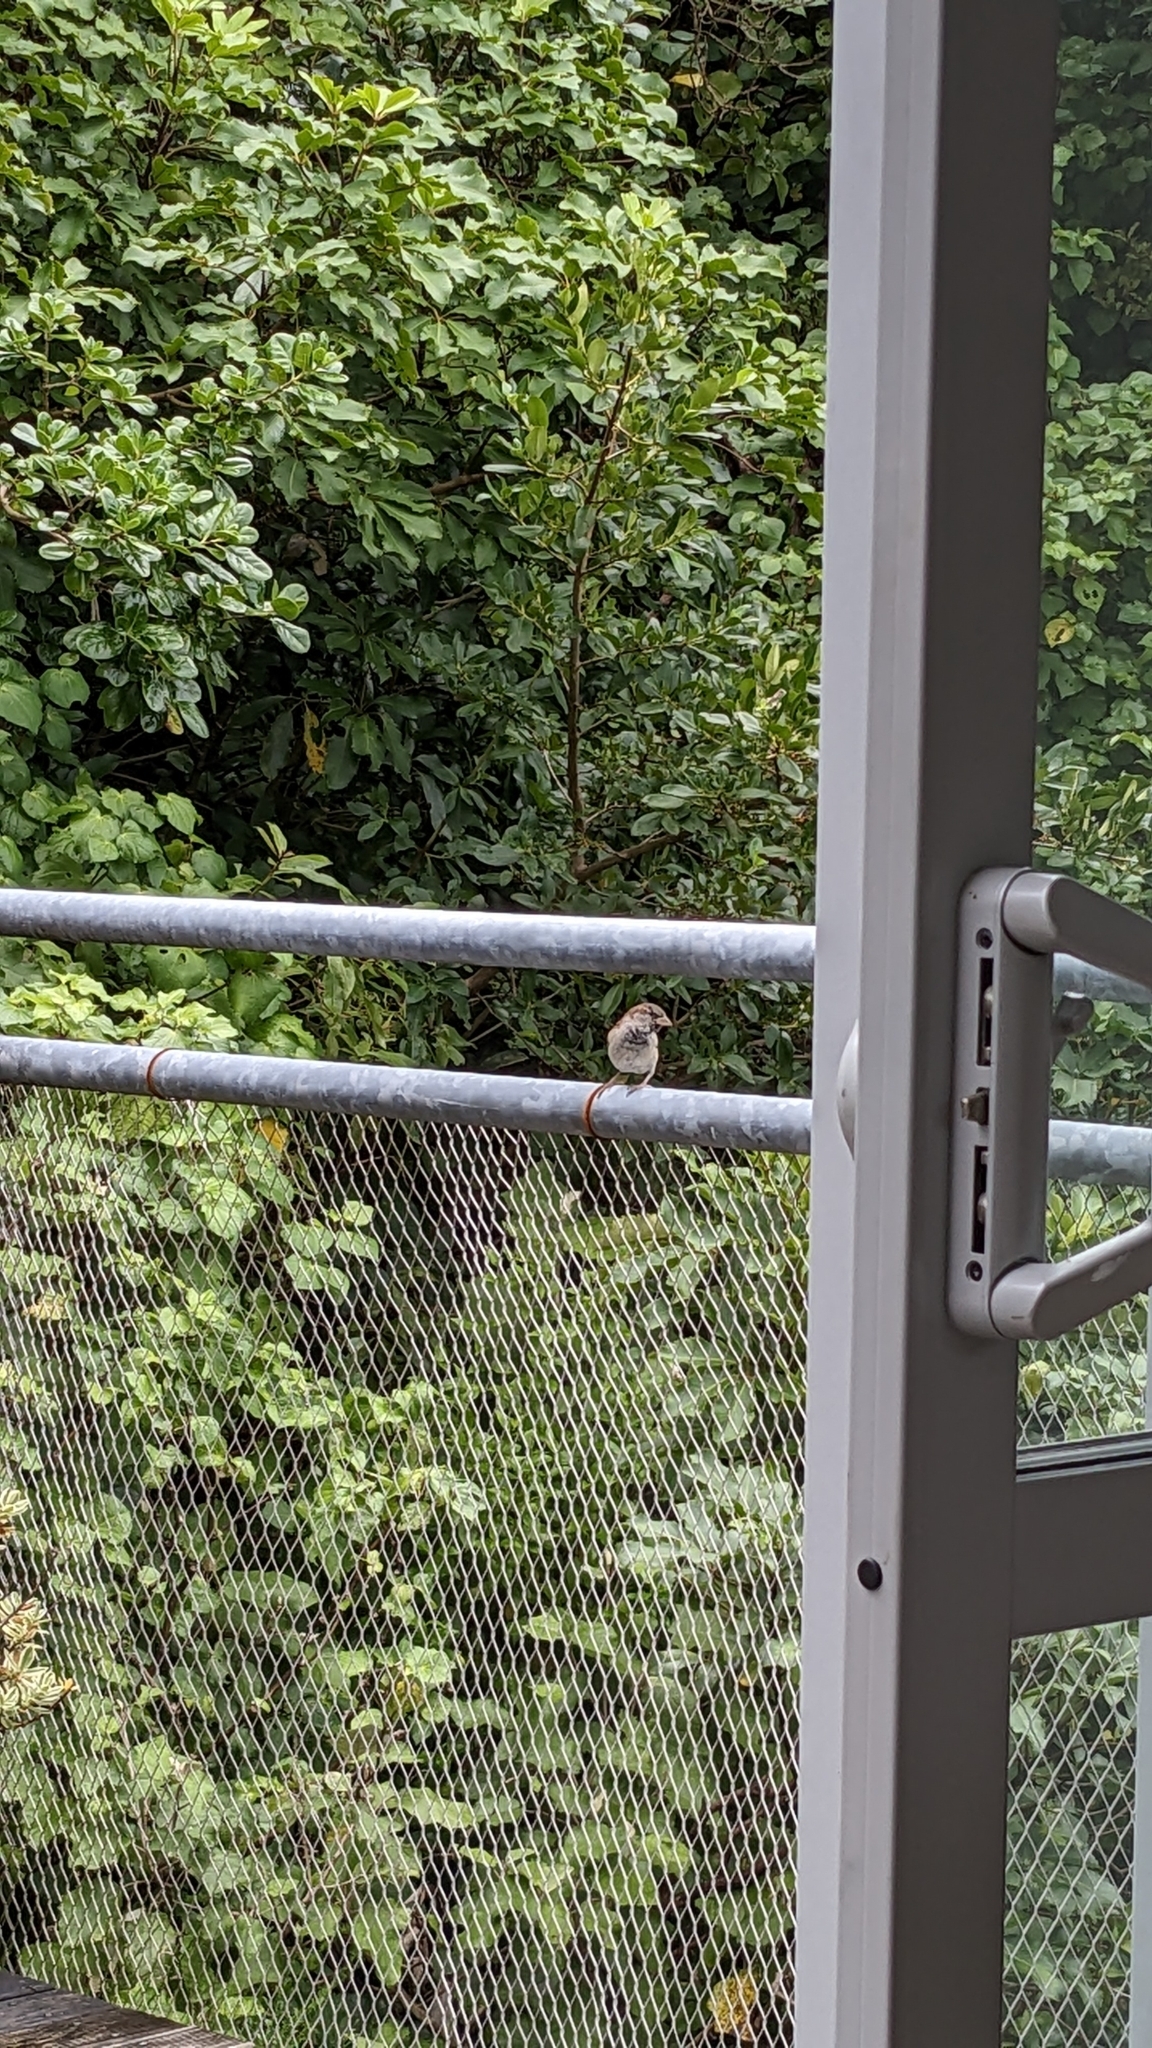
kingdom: Animalia
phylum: Chordata
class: Aves
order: Passeriformes
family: Passeridae
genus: Passer
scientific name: Passer domesticus
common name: House sparrow
